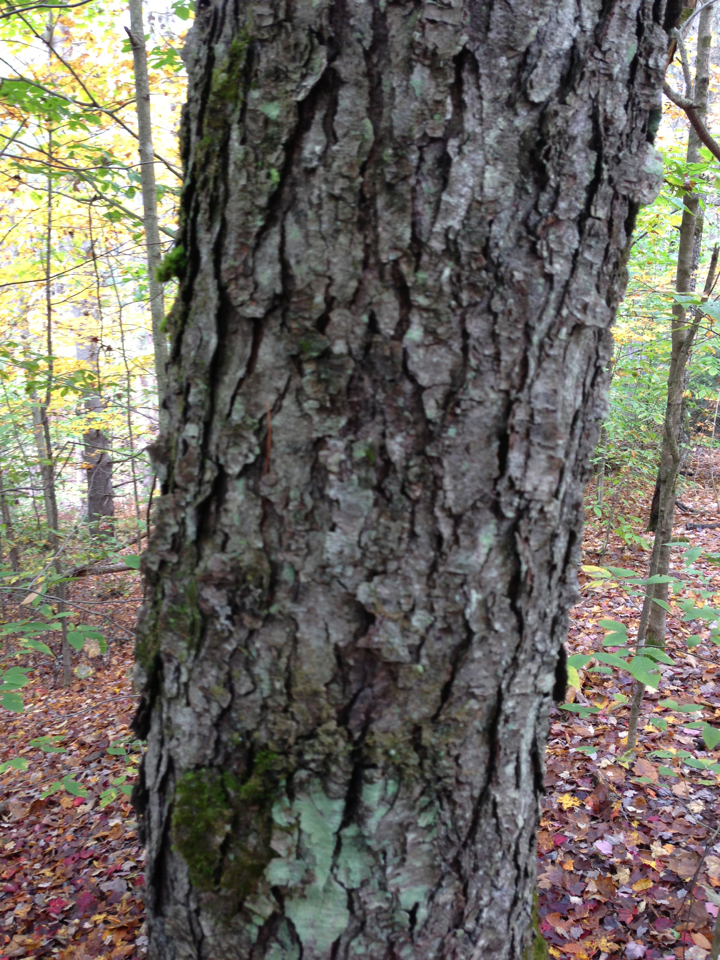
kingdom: Plantae
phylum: Tracheophyta
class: Magnoliopsida
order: Rosales
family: Rosaceae
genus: Prunus
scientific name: Prunus serotina
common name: Black cherry
